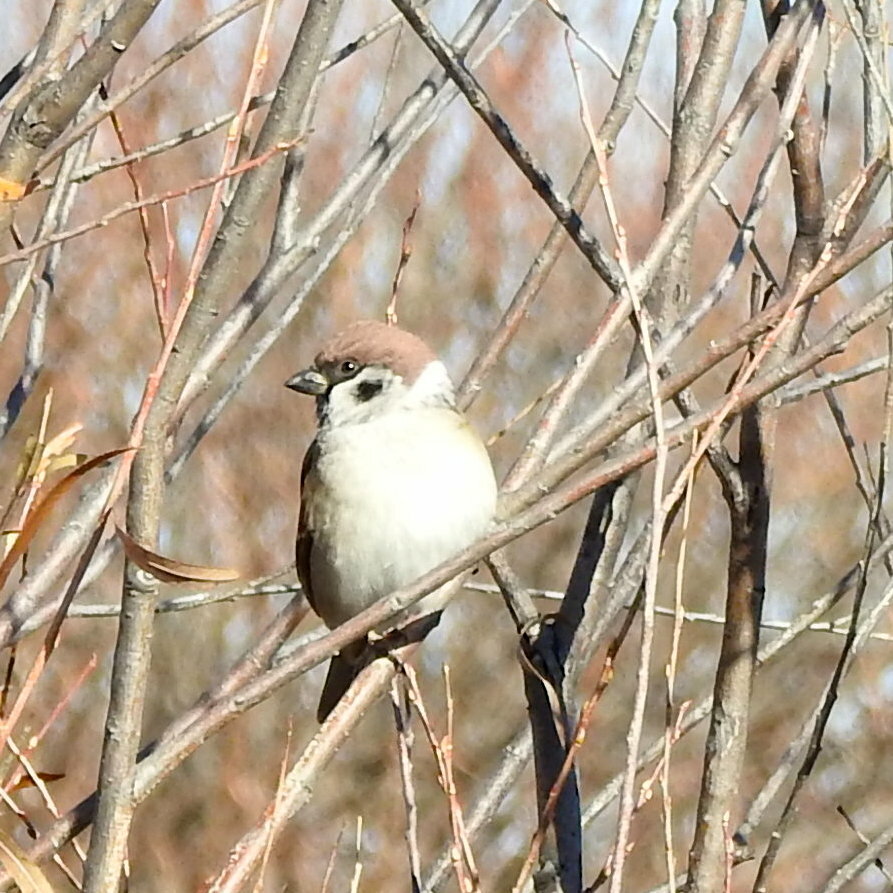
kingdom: Animalia
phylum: Chordata
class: Aves
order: Passeriformes
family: Passeridae
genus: Passer
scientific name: Passer montanus
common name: Eurasian tree sparrow
